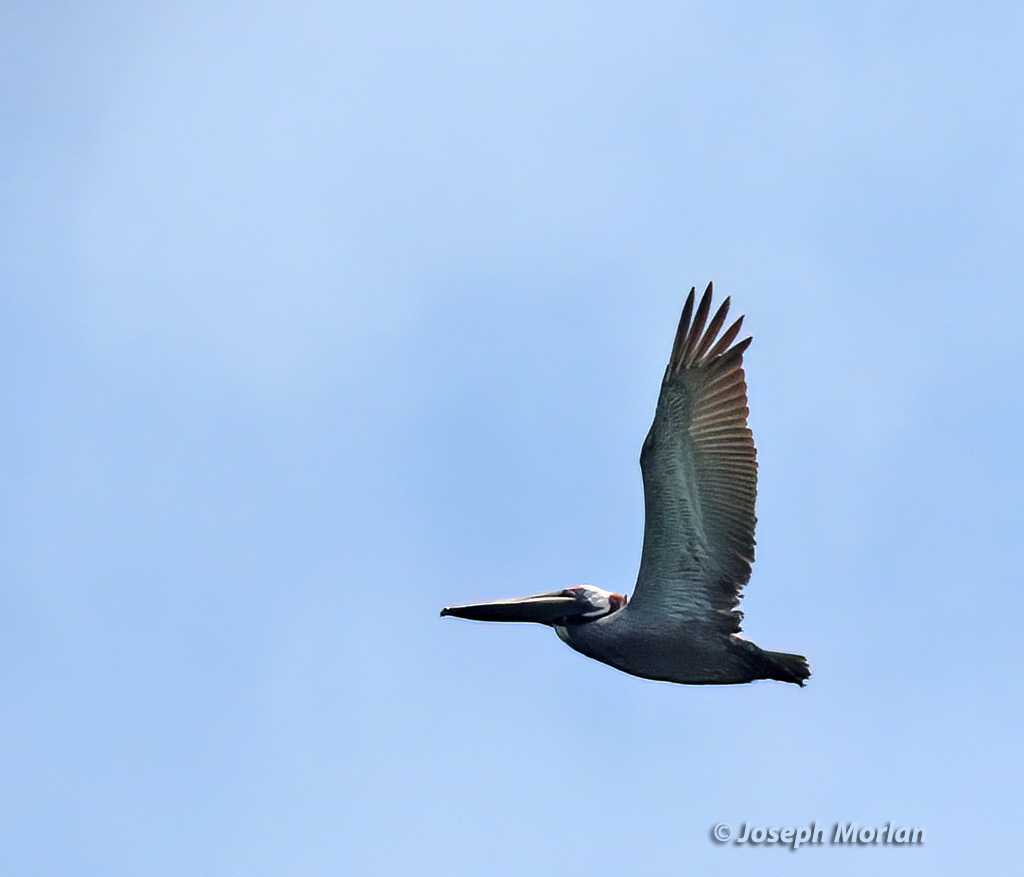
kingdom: Animalia
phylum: Chordata
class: Aves
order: Pelecaniformes
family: Pelecanidae
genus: Pelecanus
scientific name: Pelecanus occidentalis
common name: Brown pelican
